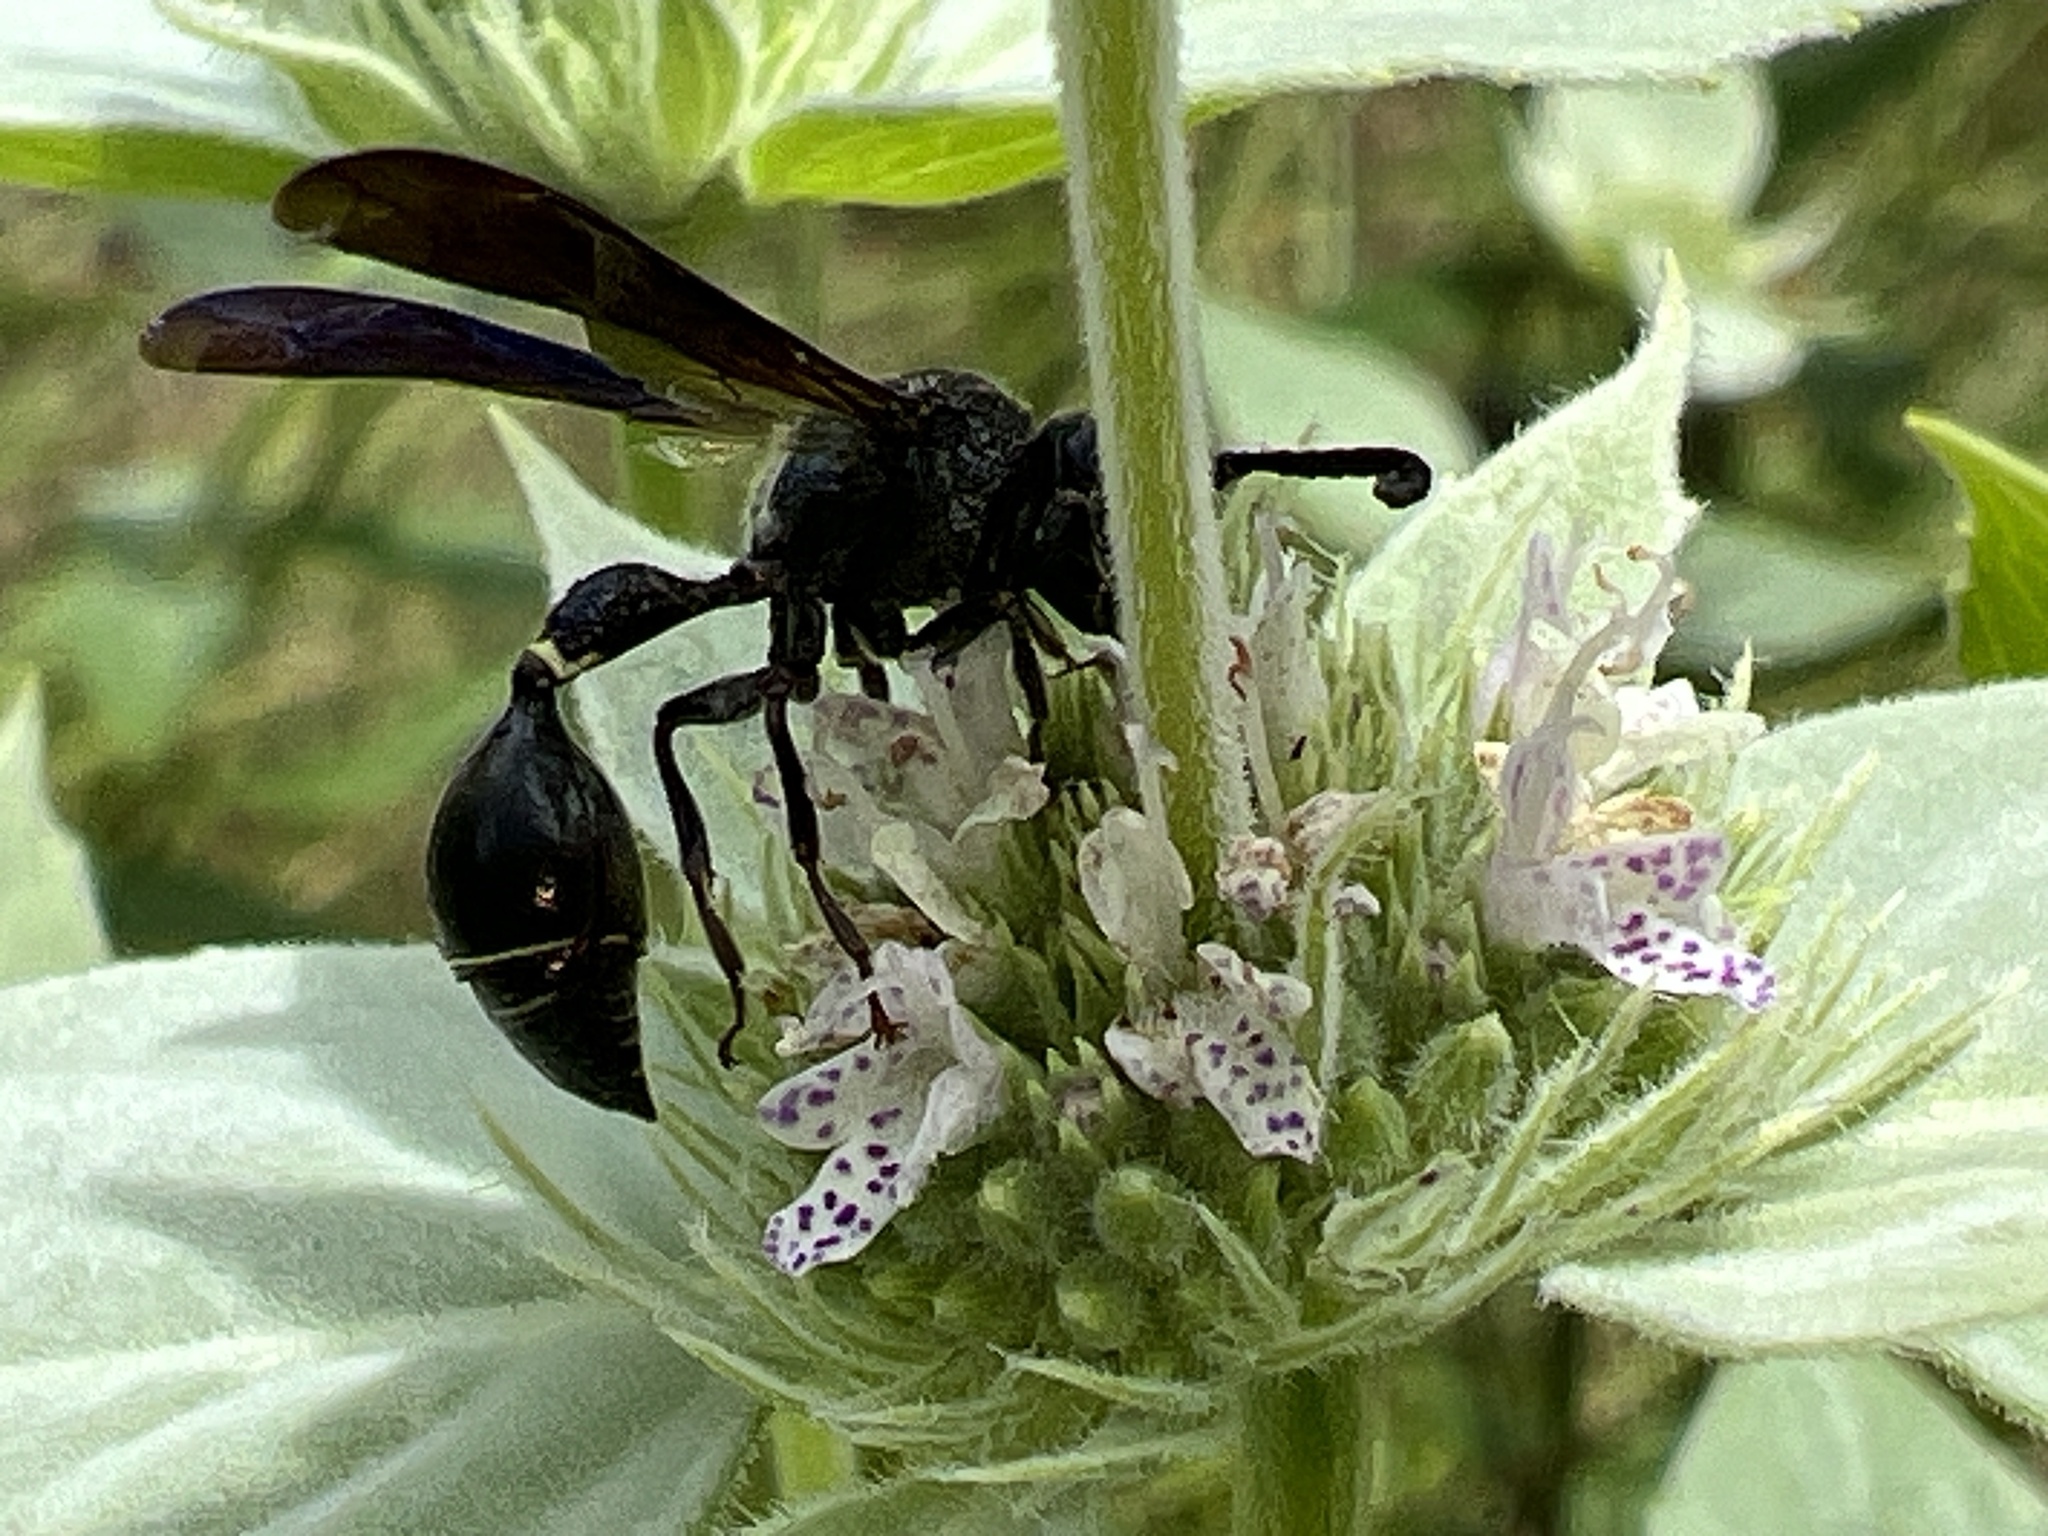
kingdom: Animalia
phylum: Arthropoda
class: Insecta
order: Hymenoptera
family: Eumenidae
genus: Zethus
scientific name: Zethus spinipes
